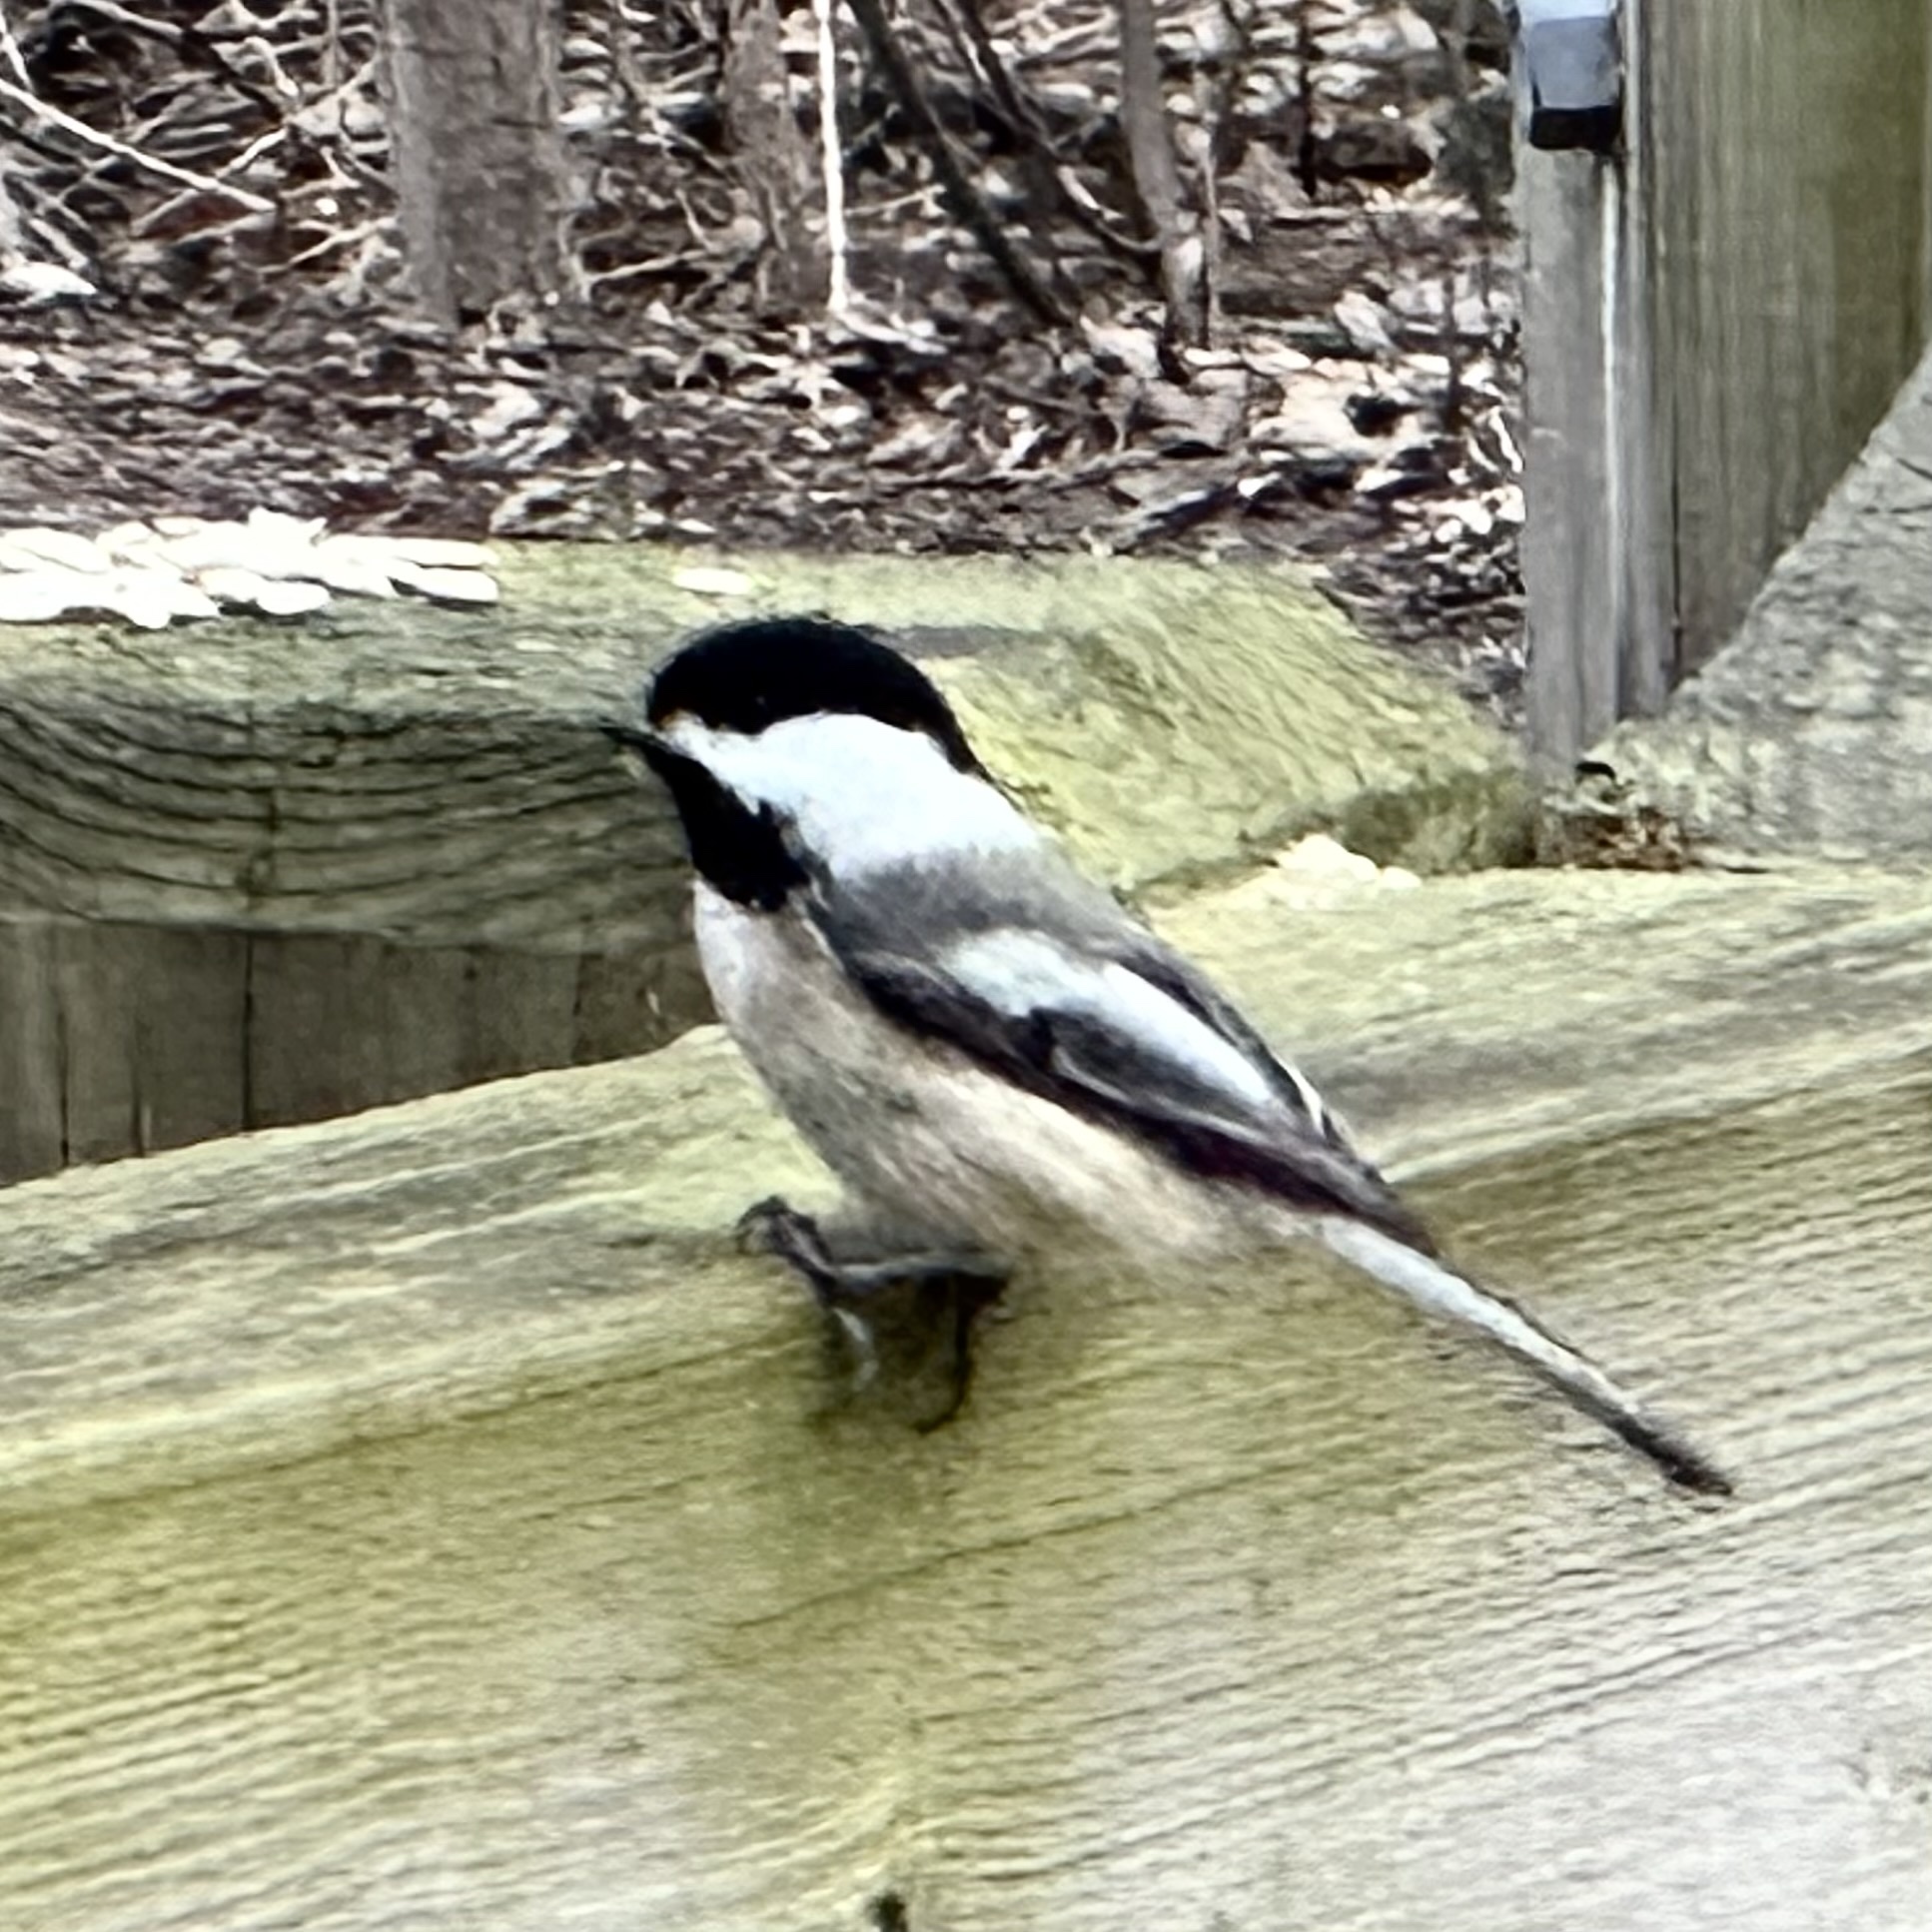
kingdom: Animalia
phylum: Chordata
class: Aves
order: Passeriformes
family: Paridae
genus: Poecile
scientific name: Poecile atricapillus
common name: Black-capped chickadee
